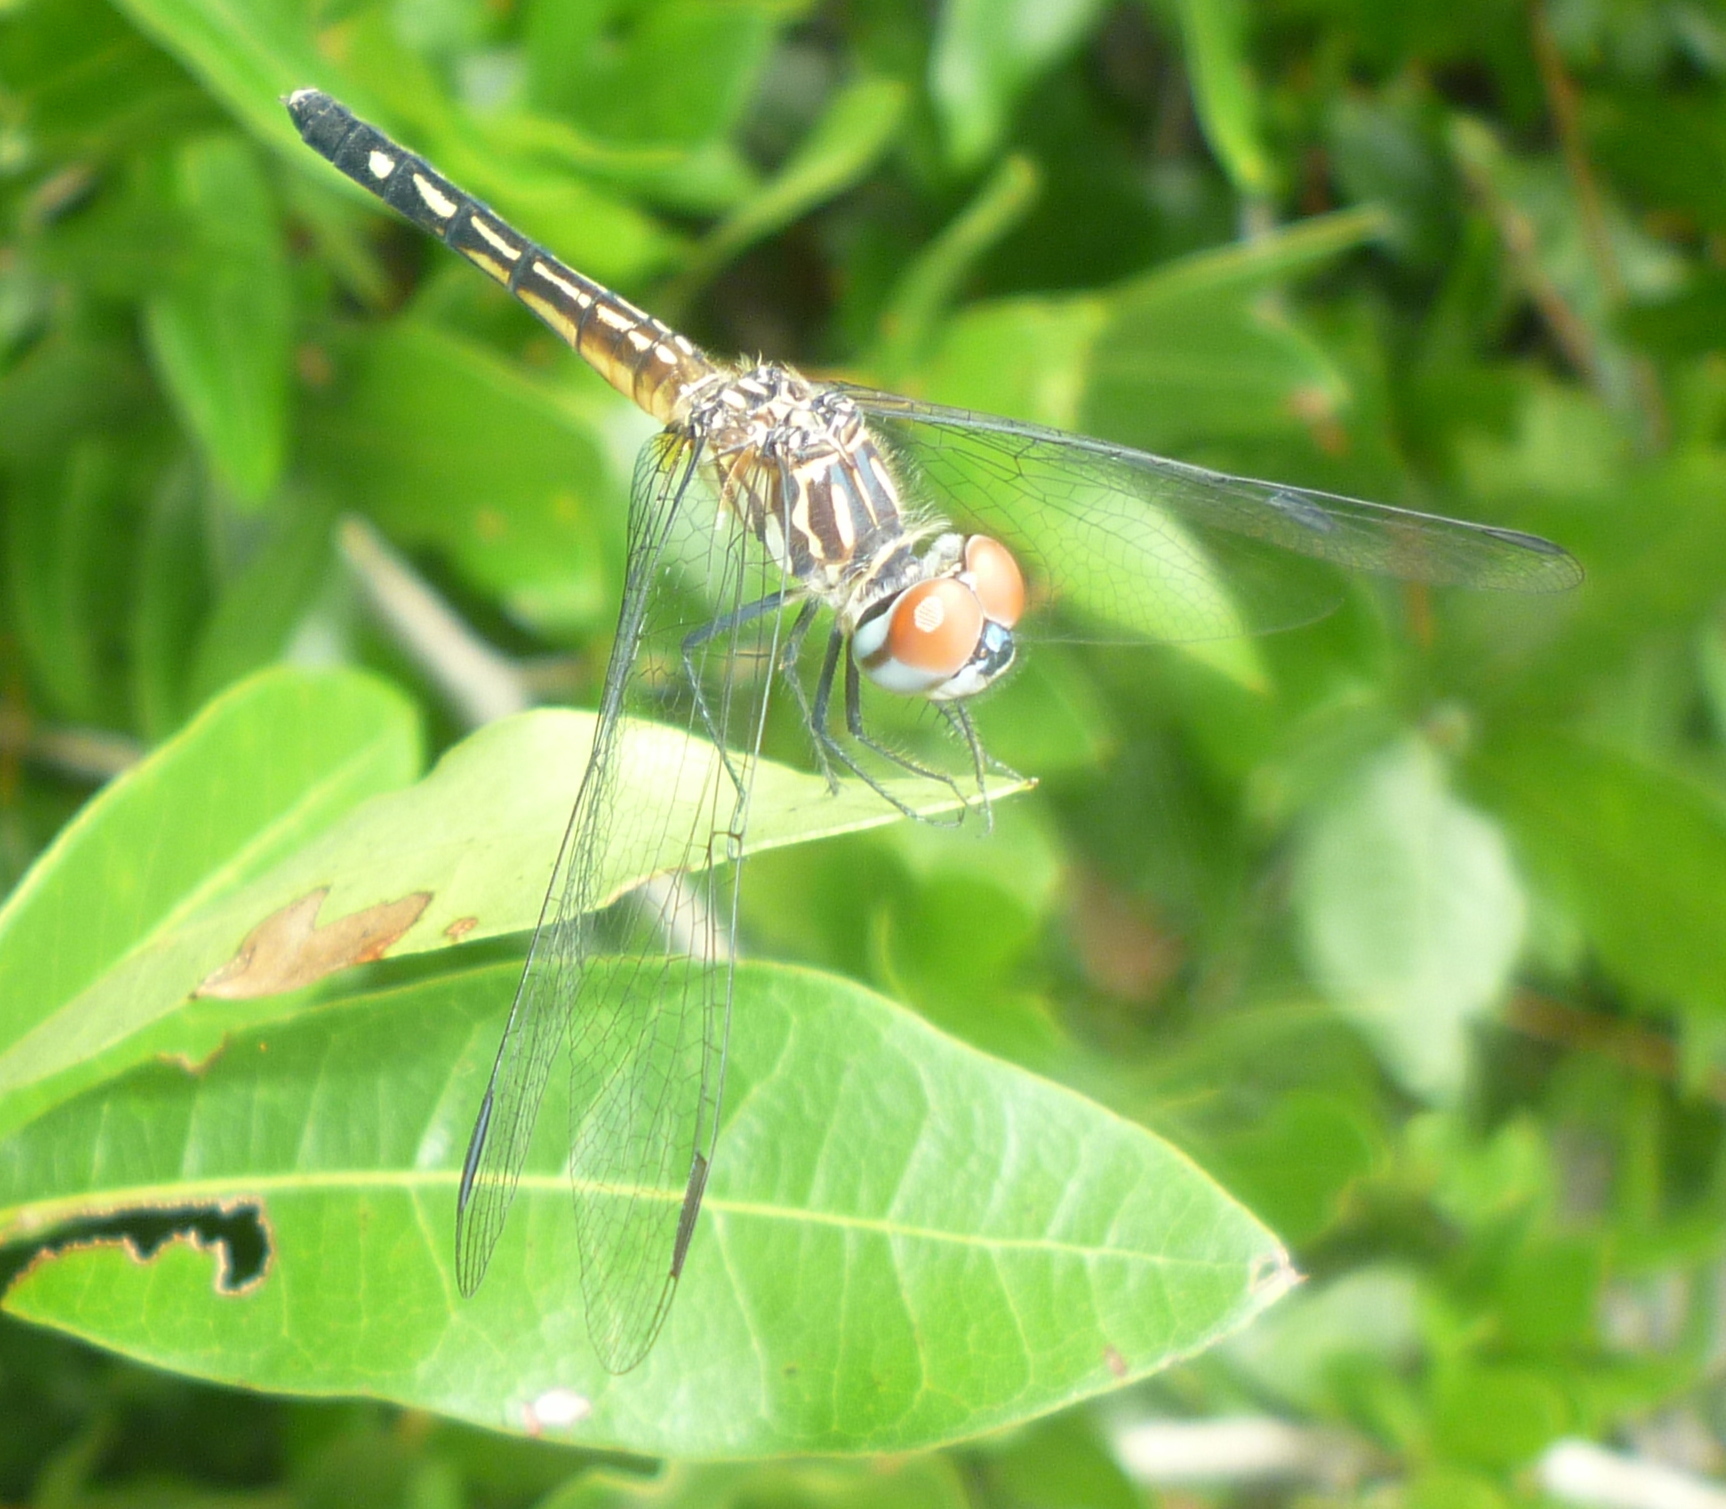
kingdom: Animalia
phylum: Arthropoda
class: Insecta
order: Odonata
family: Libellulidae
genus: Pachydiplax
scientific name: Pachydiplax longipennis
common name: Blue dasher
